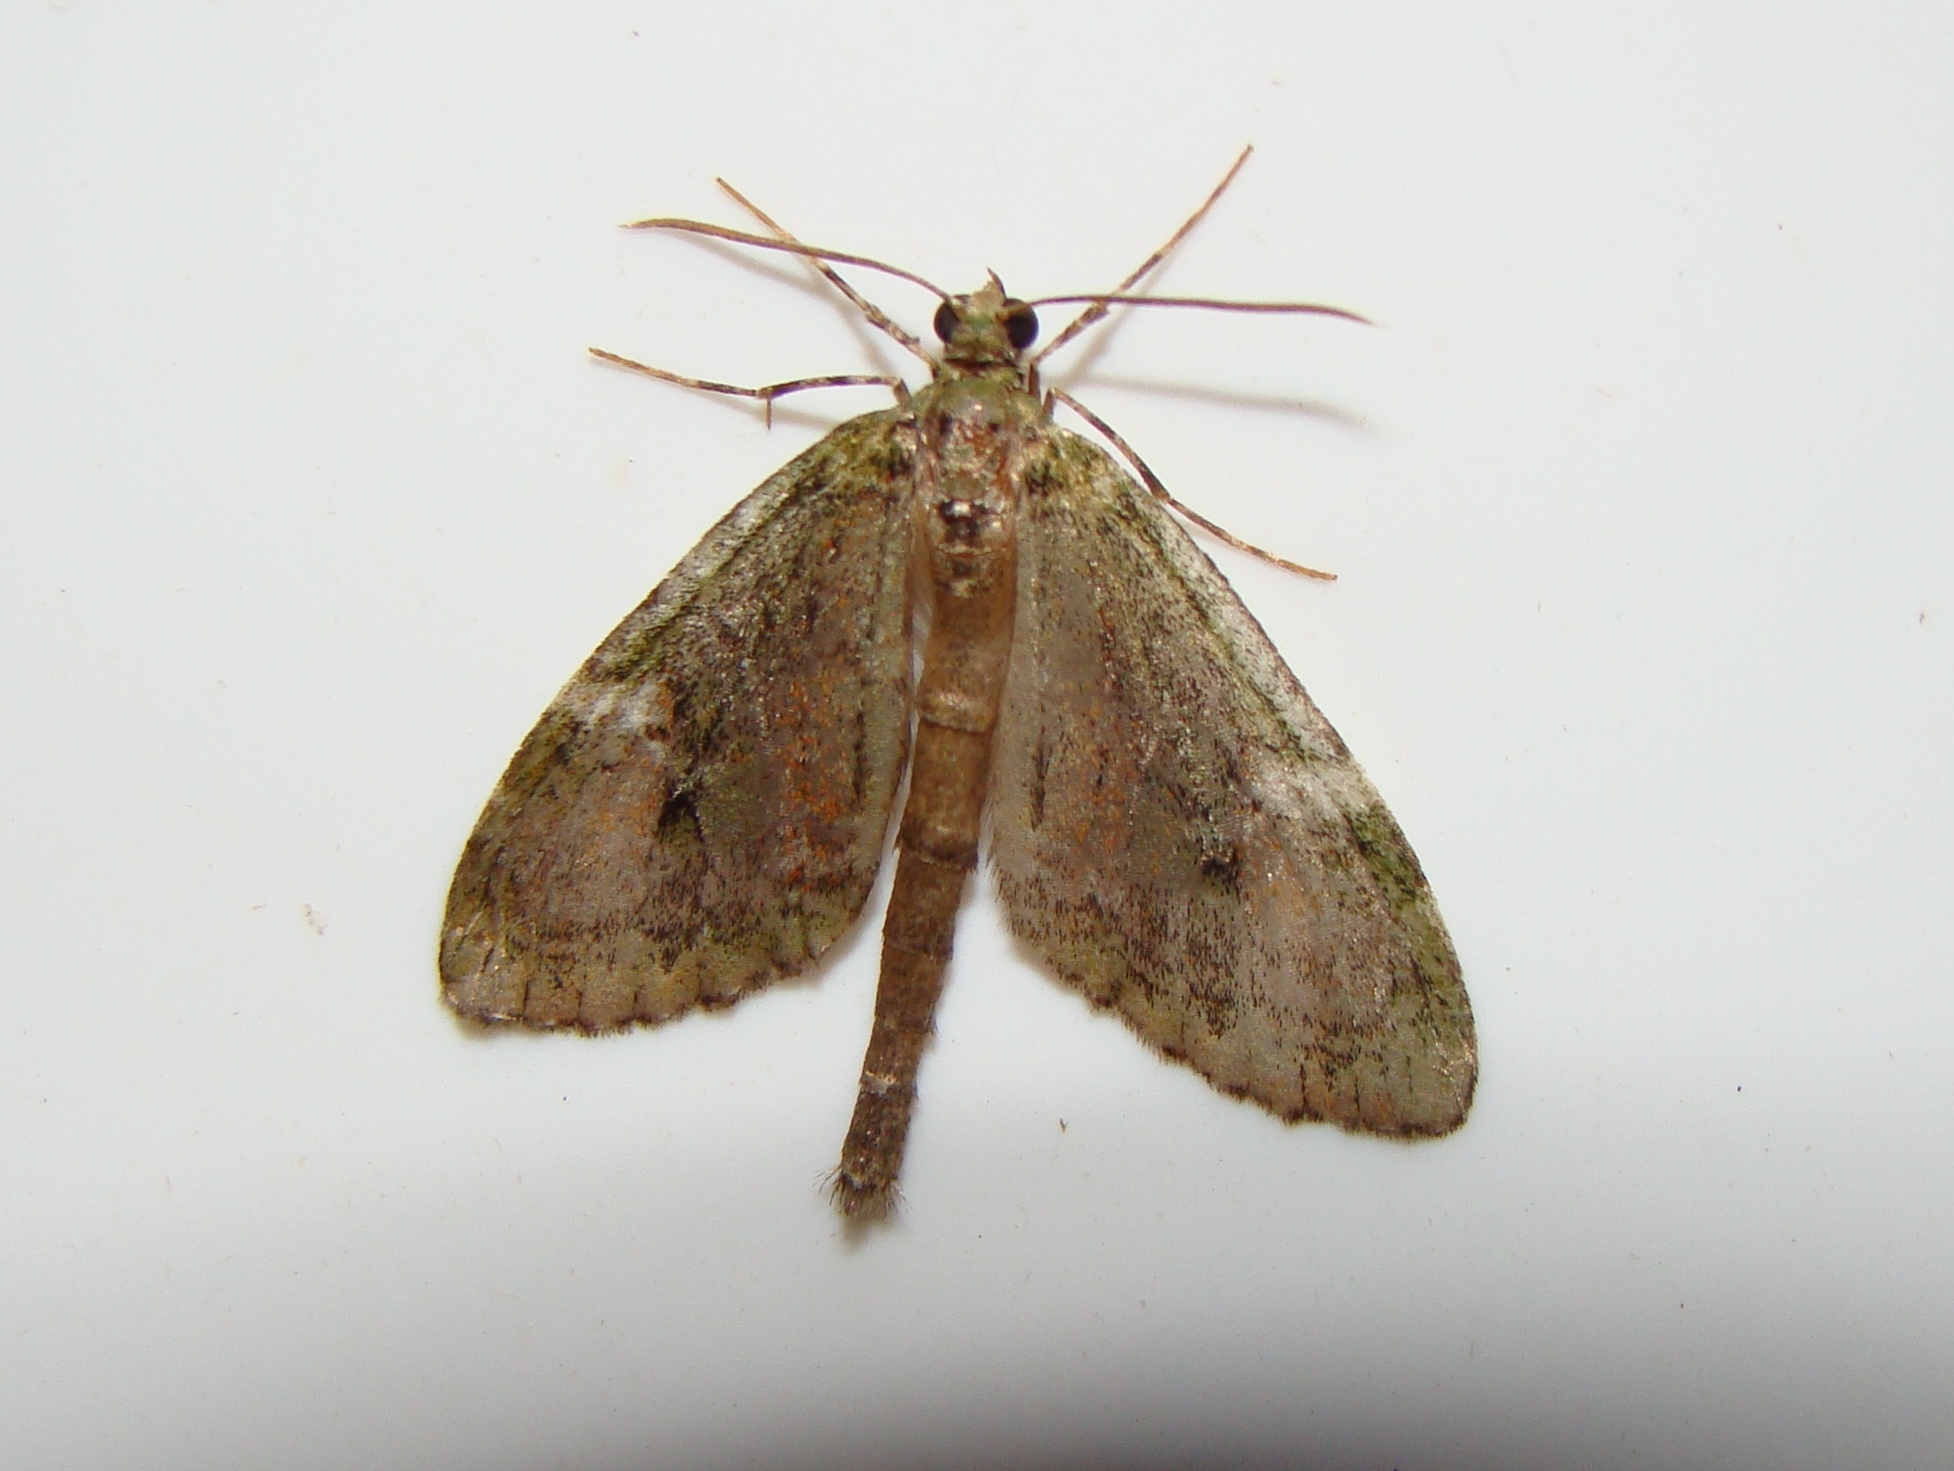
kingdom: Animalia
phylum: Arthropoda
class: Insecta
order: Lepidoptera
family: Geometridae
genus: Tatosoma
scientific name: Tatosoma topea
